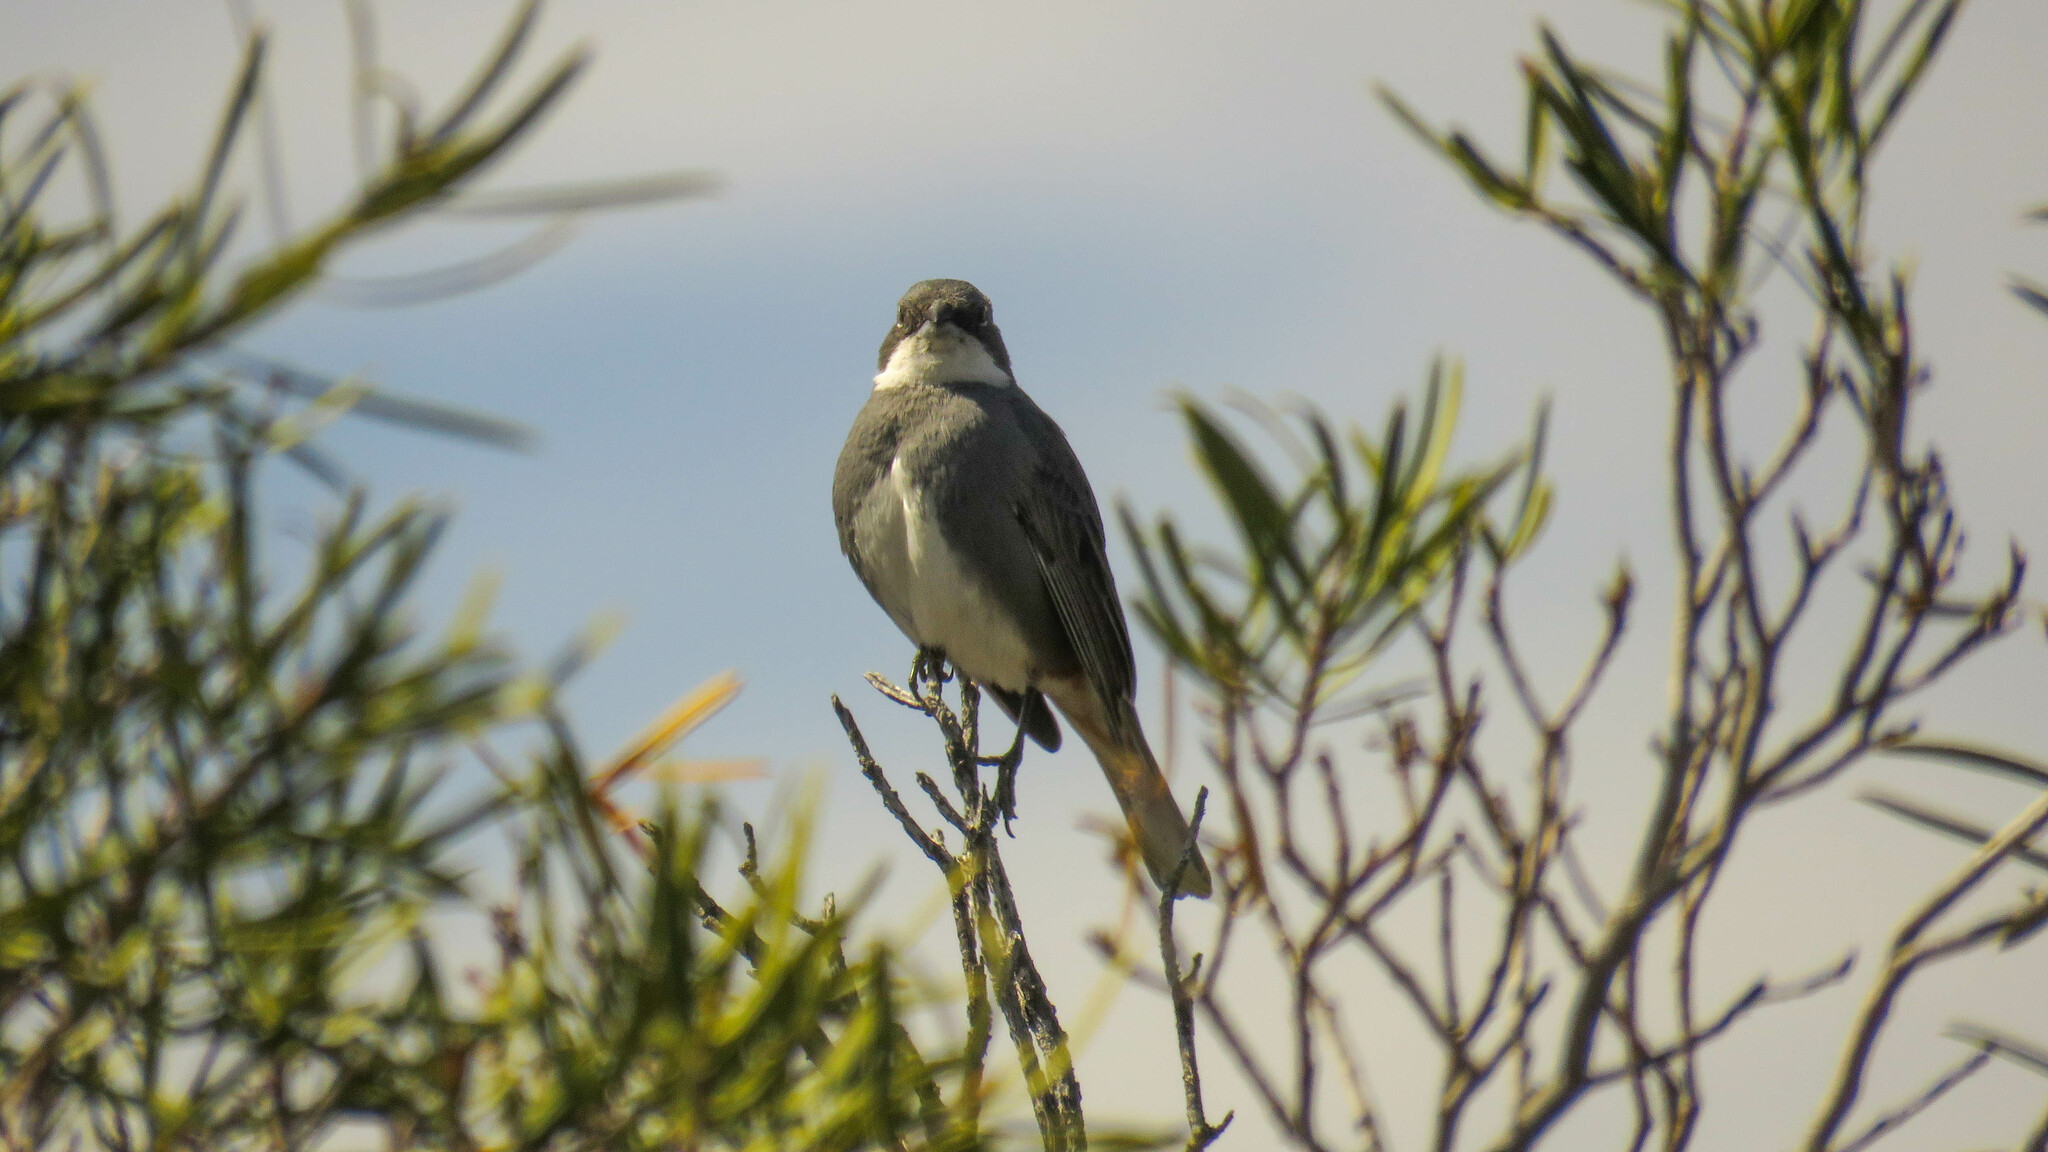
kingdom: Animalia
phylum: Chordata
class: Aves
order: Passeriformes
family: Thraupidae
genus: Diuca
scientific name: Diuca diuca
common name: Common diuca finch
